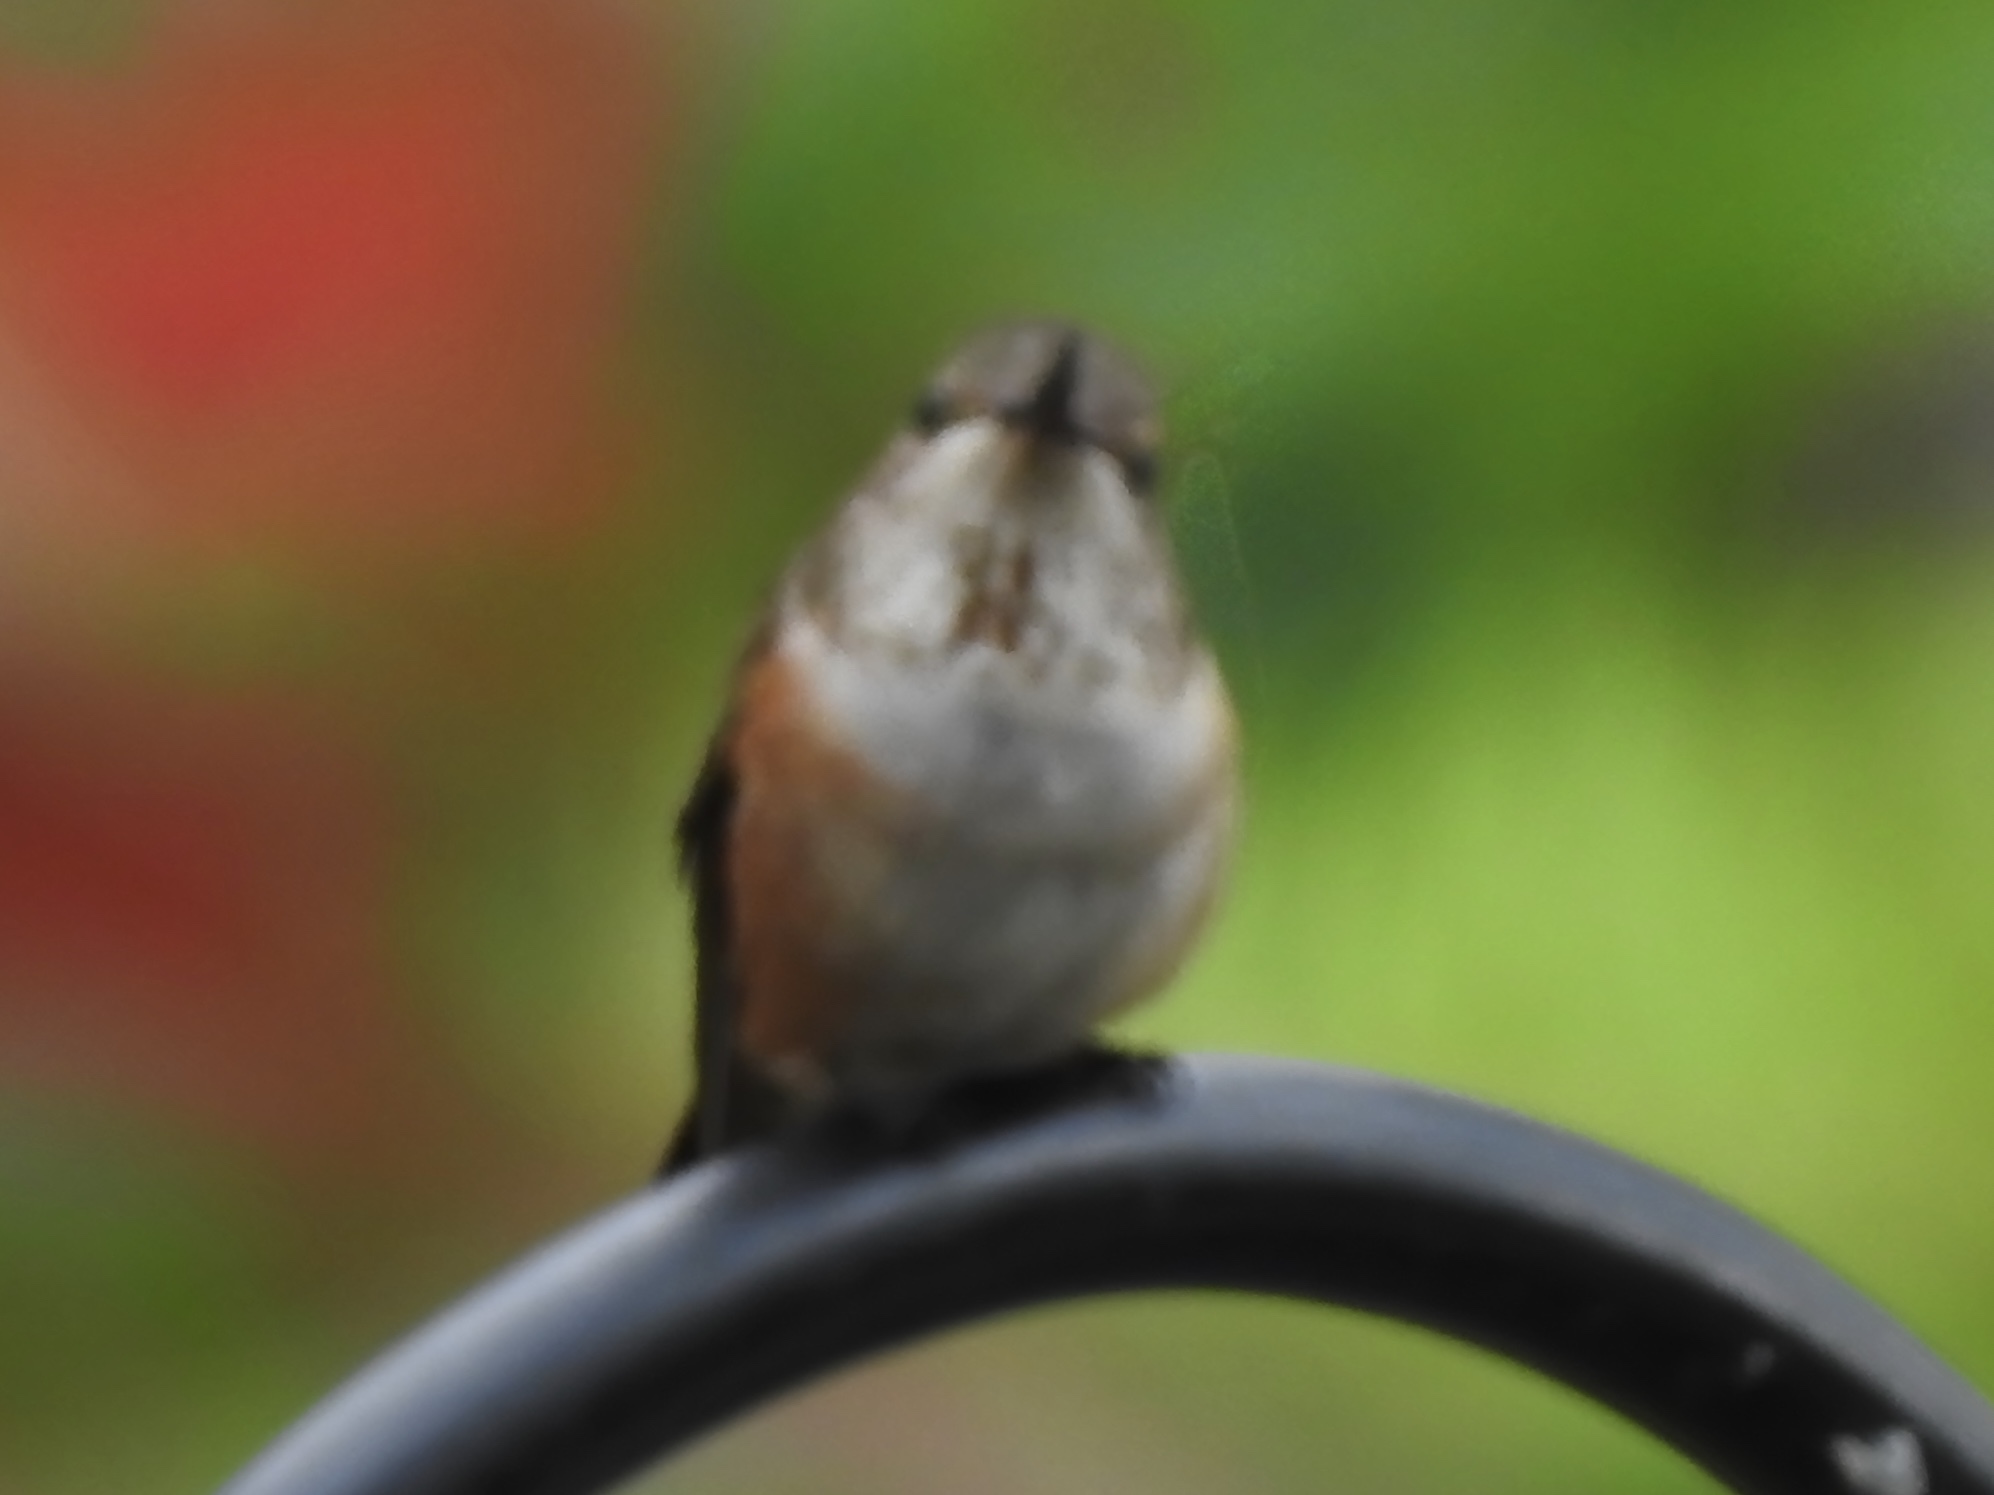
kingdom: Animalia
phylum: Chordata
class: Aves
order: Apodiformes
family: Trochilidae
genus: Selasphorus
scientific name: Selasphorus rufus
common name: Rufous hummingbird
